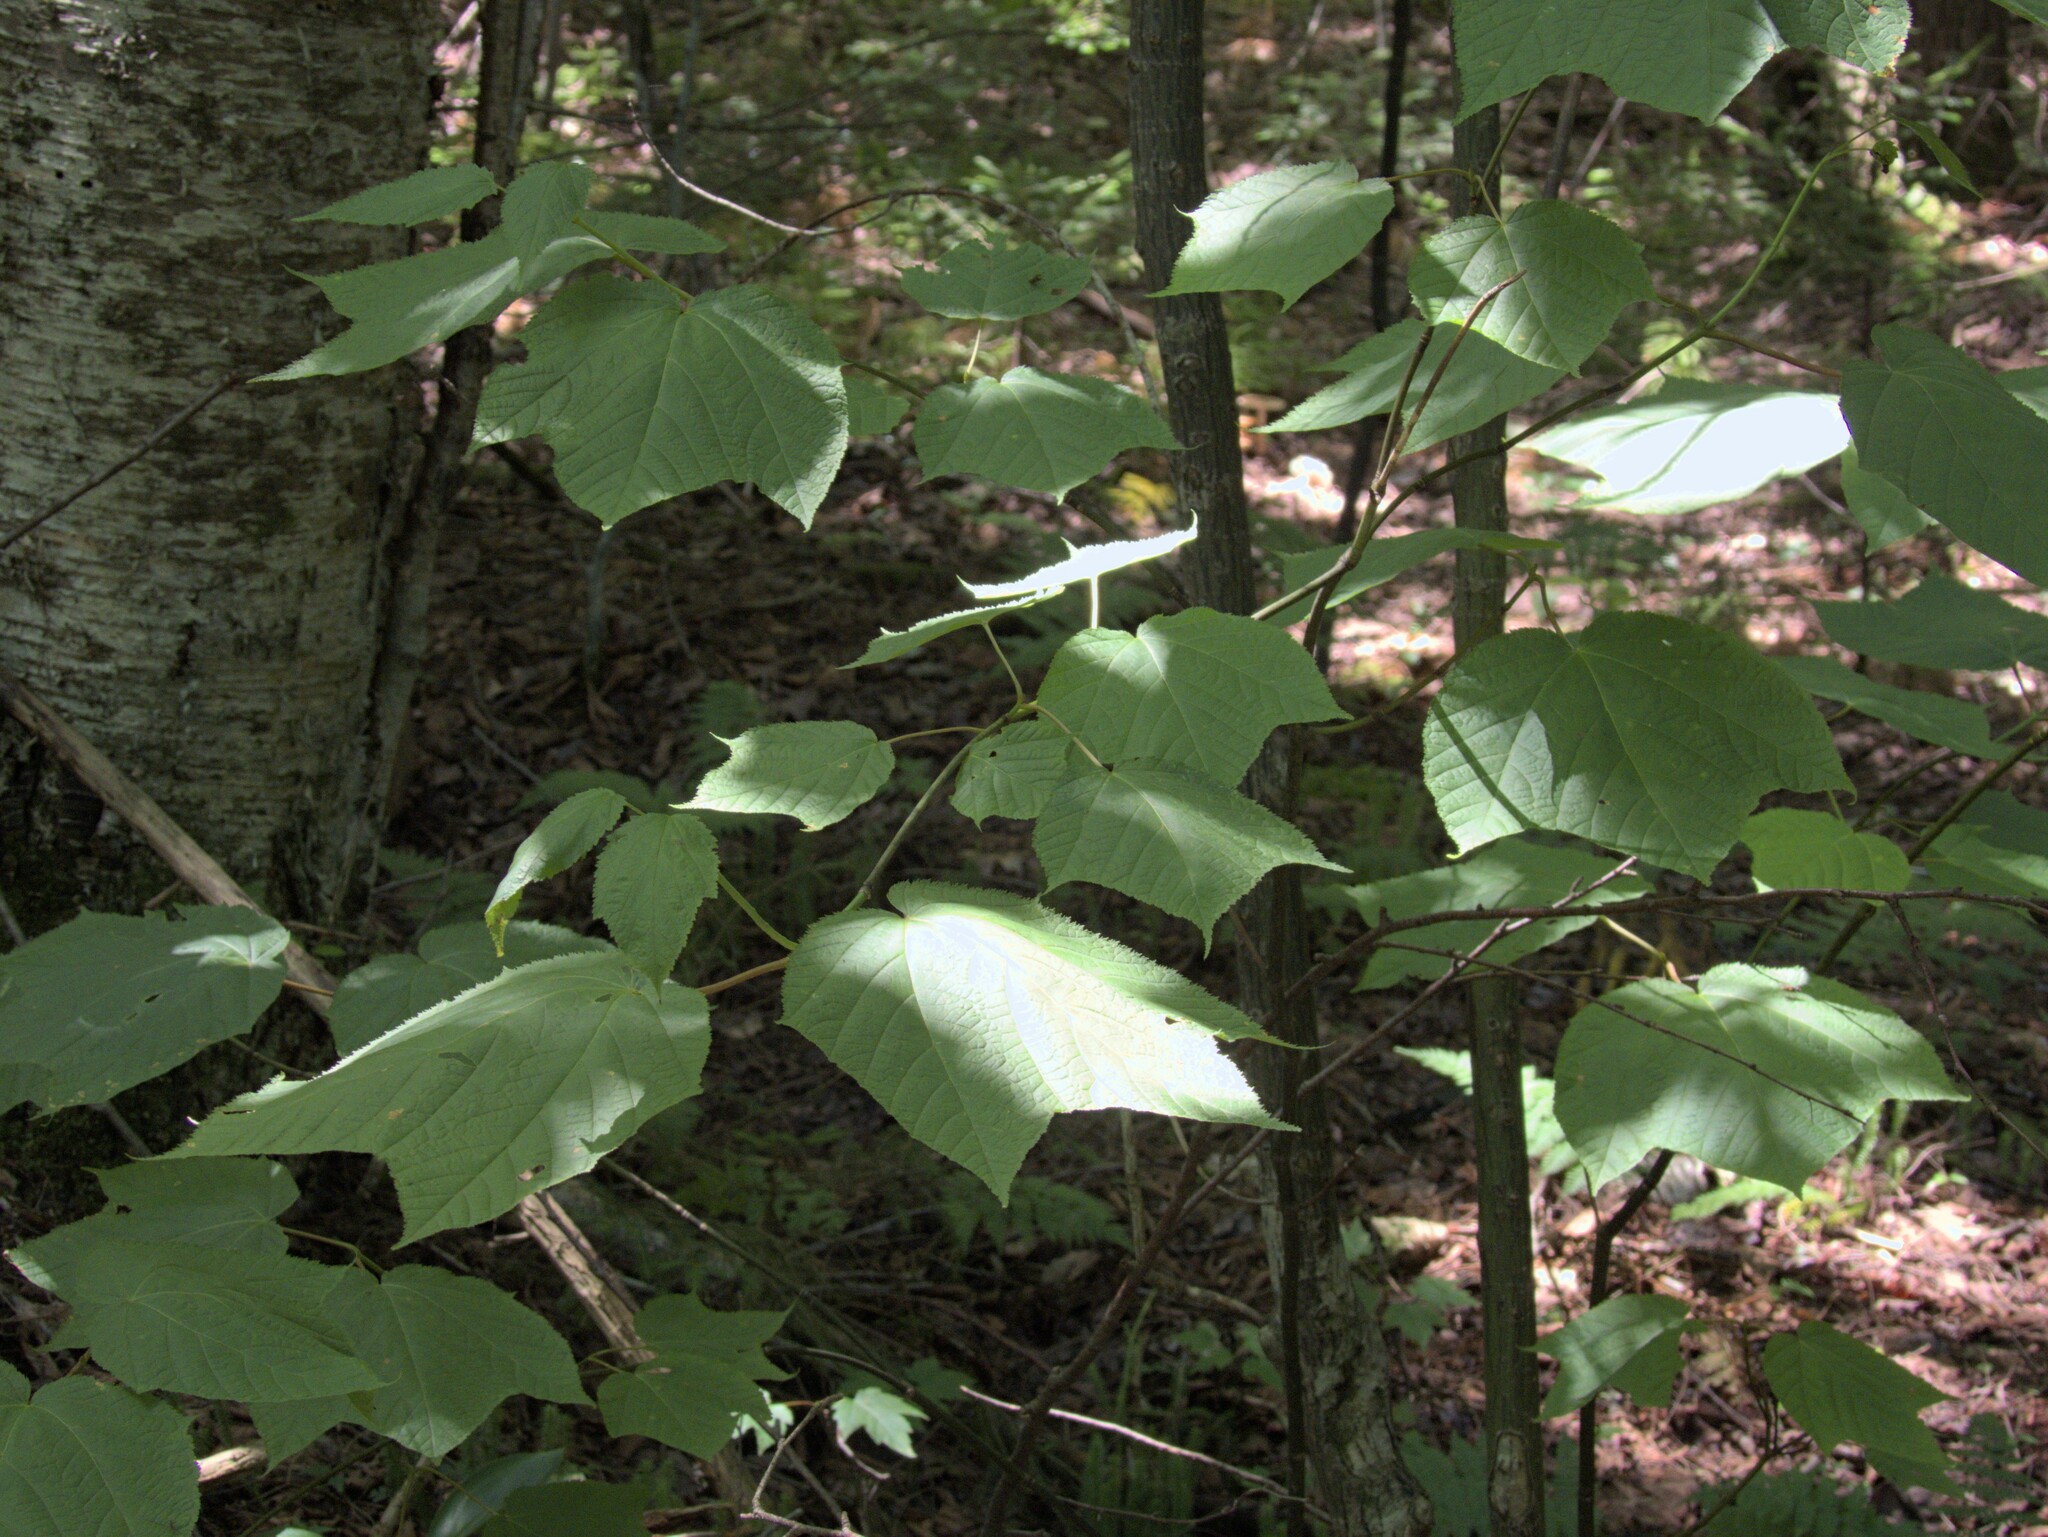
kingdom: Plantae
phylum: Tracheophyta
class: Magnoliopsida
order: Sapindales
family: Sapindaceae
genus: Acer
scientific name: Acer pensylvanicum
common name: Moosewood
